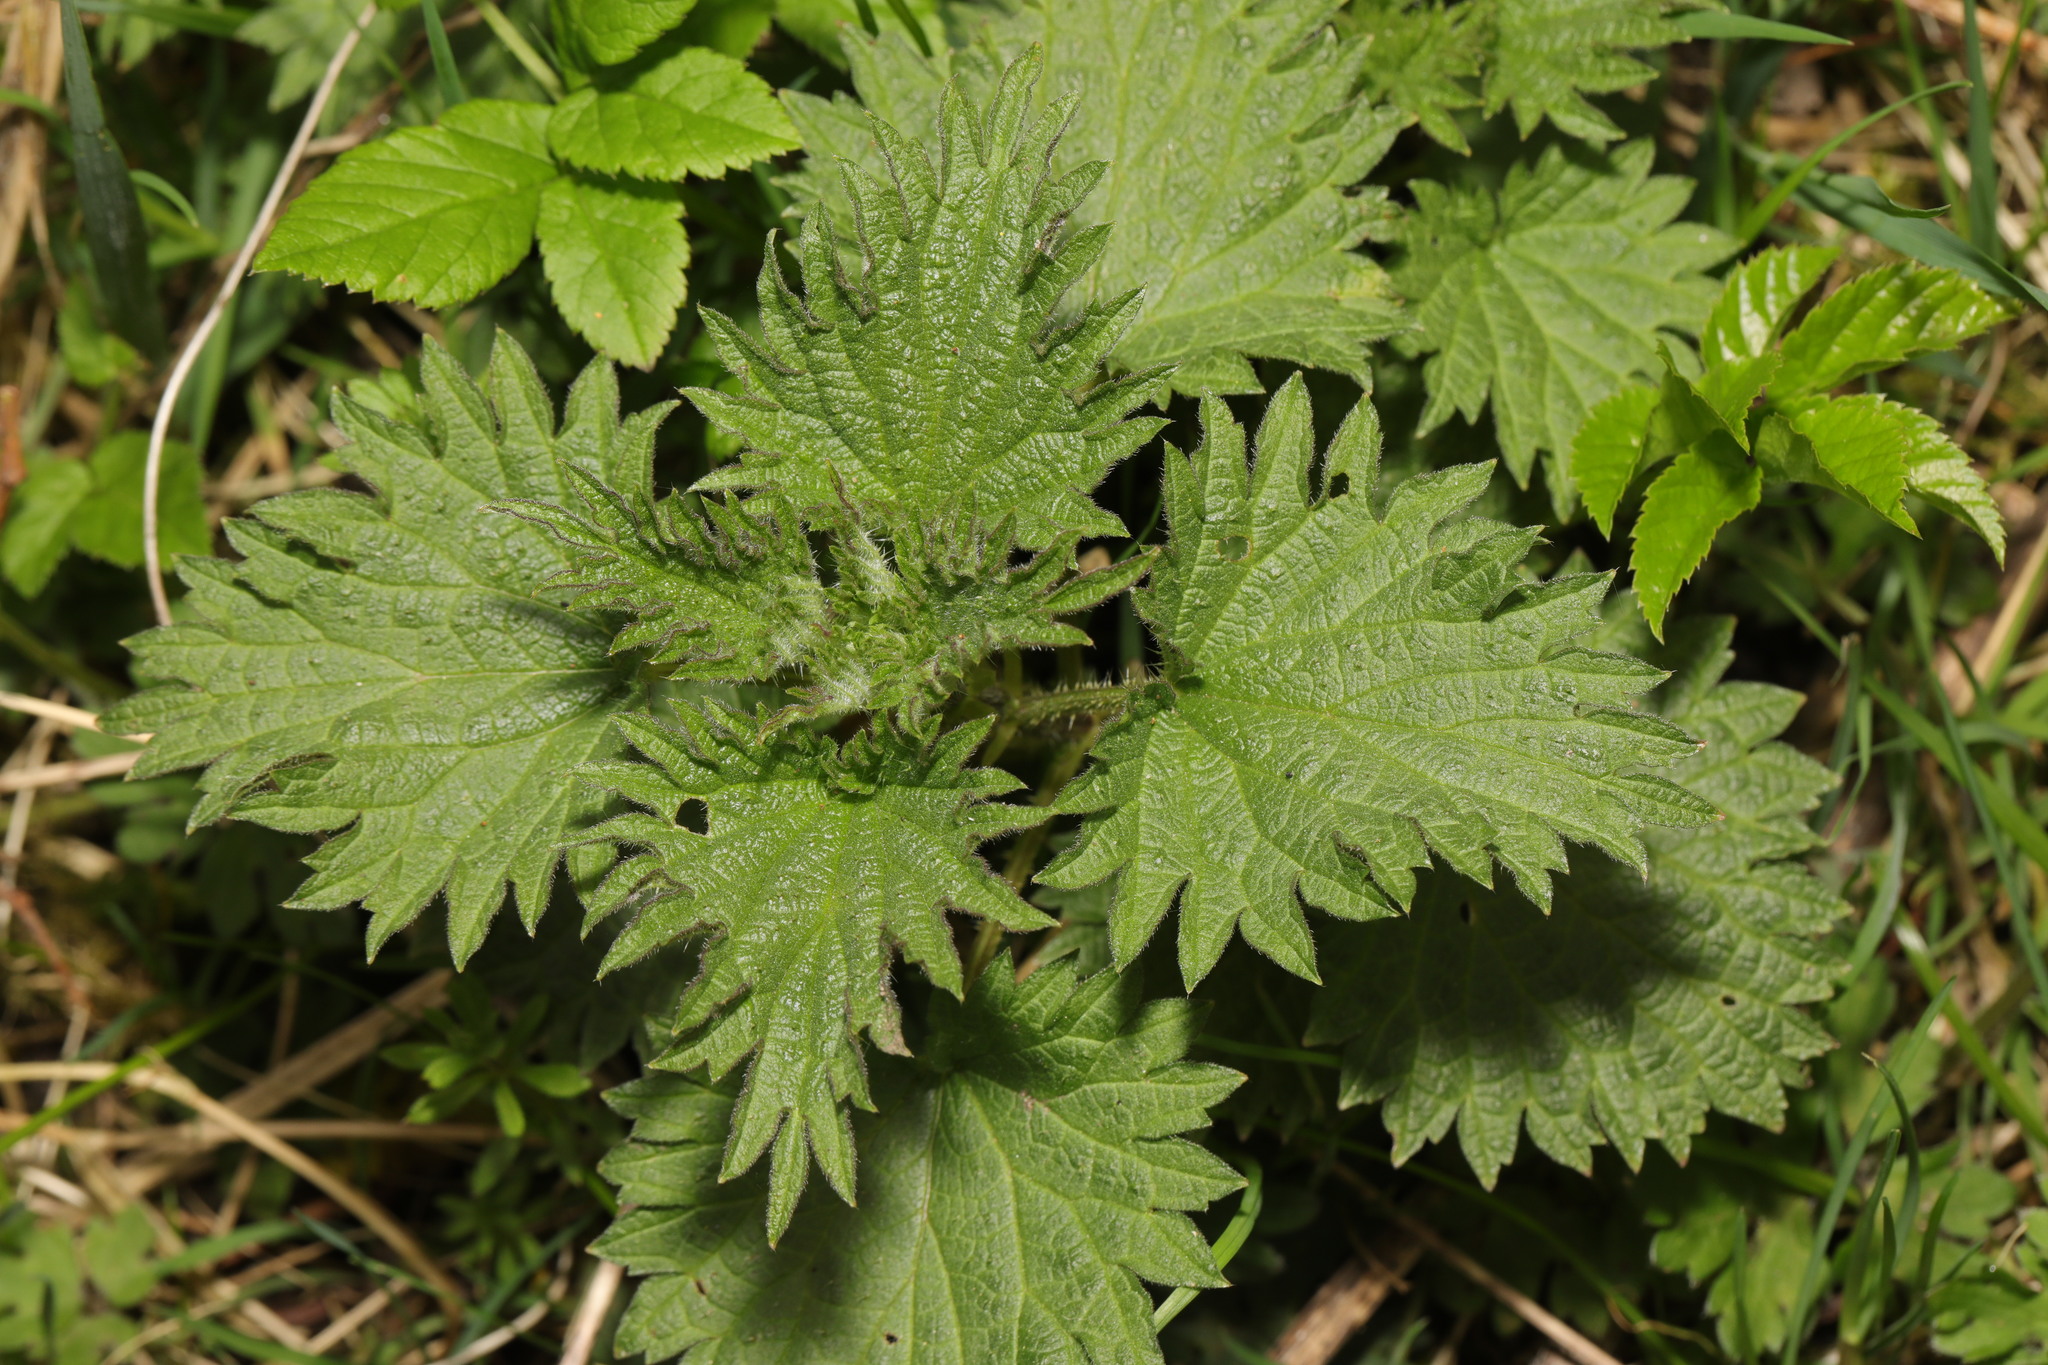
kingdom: Plantae
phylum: Tracheophyta
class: Magnoliopsida
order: Rosales
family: Urticaceae
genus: Urtica
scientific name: Urtica dioica
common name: Common nettle
